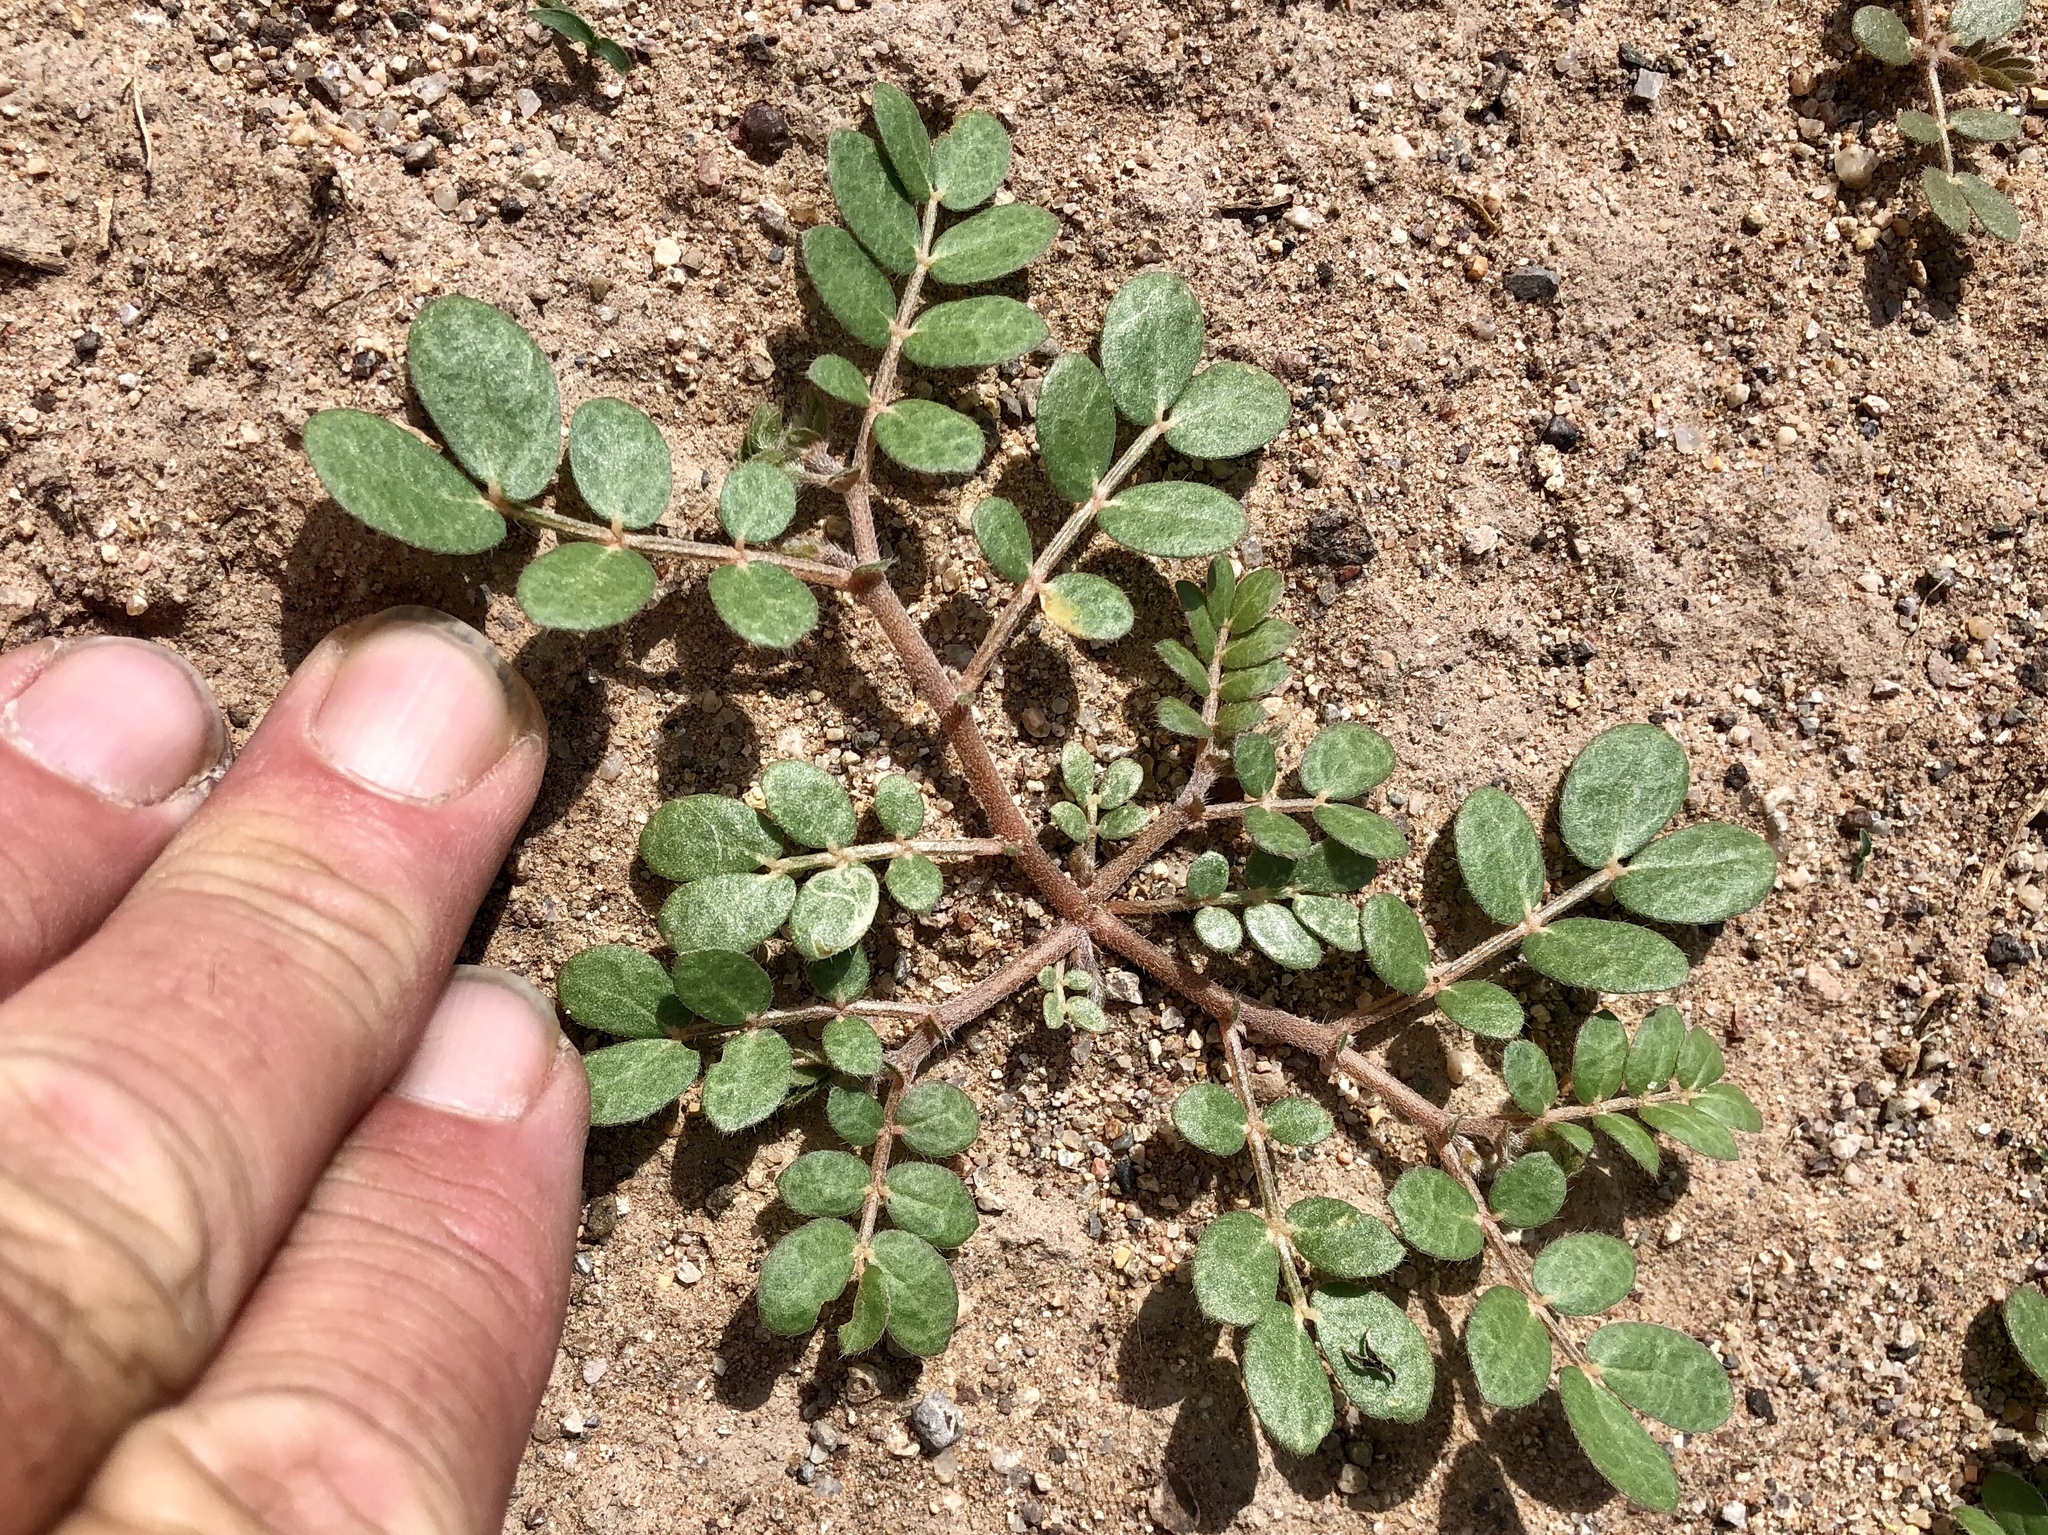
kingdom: Plantae
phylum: Tracheophyta
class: Magnoliopsida
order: Zygophyllales
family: Zygophyllaceae
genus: Kallstroemia
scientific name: Kallstroemia parviflora
